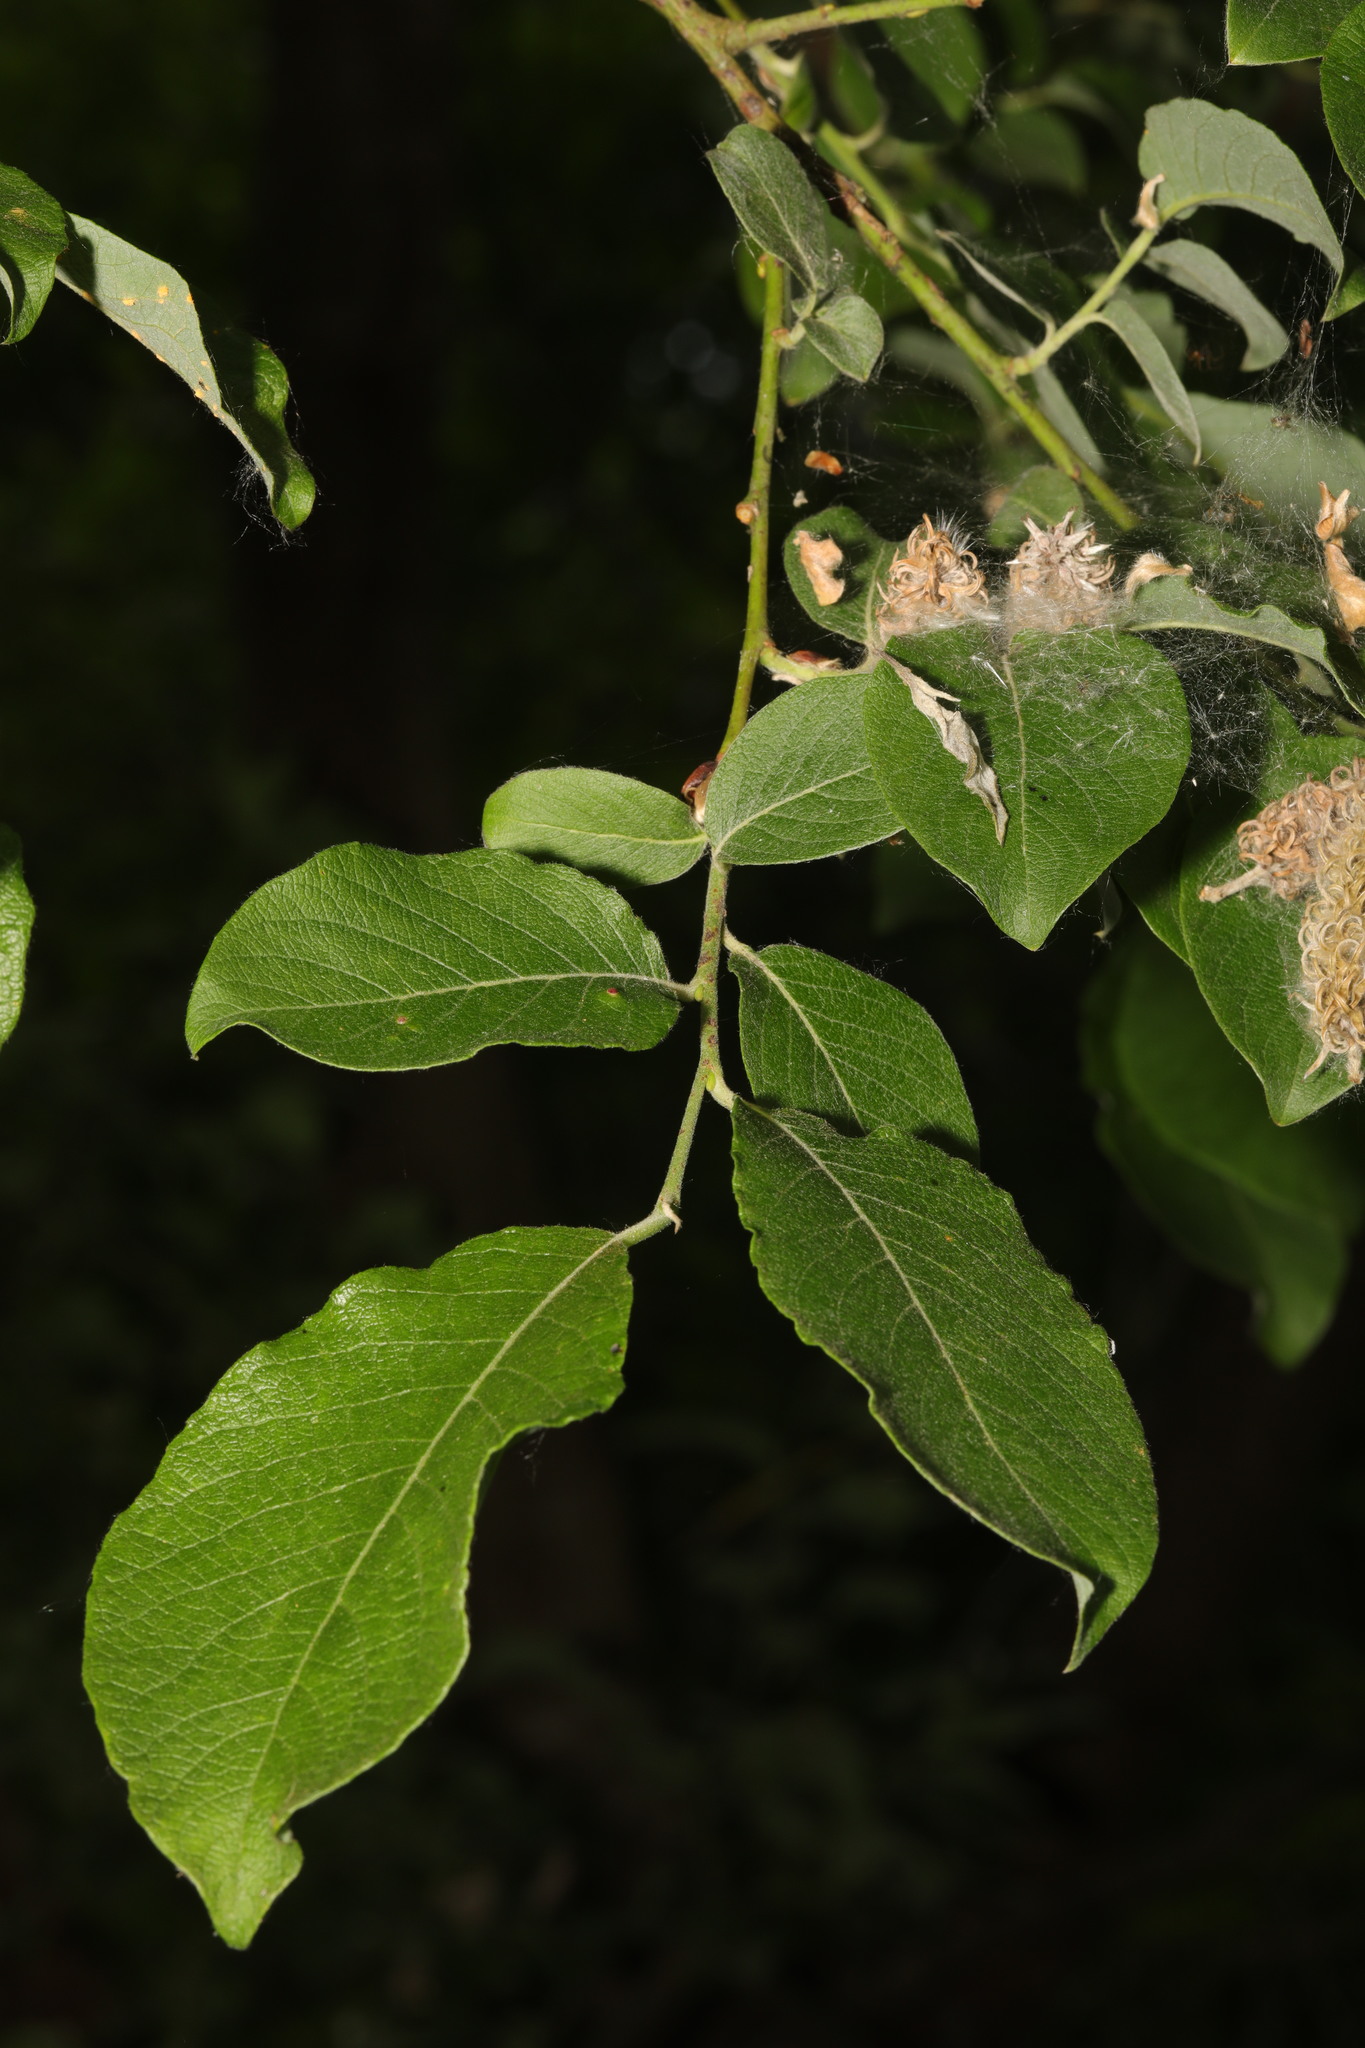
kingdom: Plantae
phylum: Tracheophyta
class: Magnoliopsida
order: Malpighiales
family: Salicaceae
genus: Salix
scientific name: Salix caprea
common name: Goat willow
